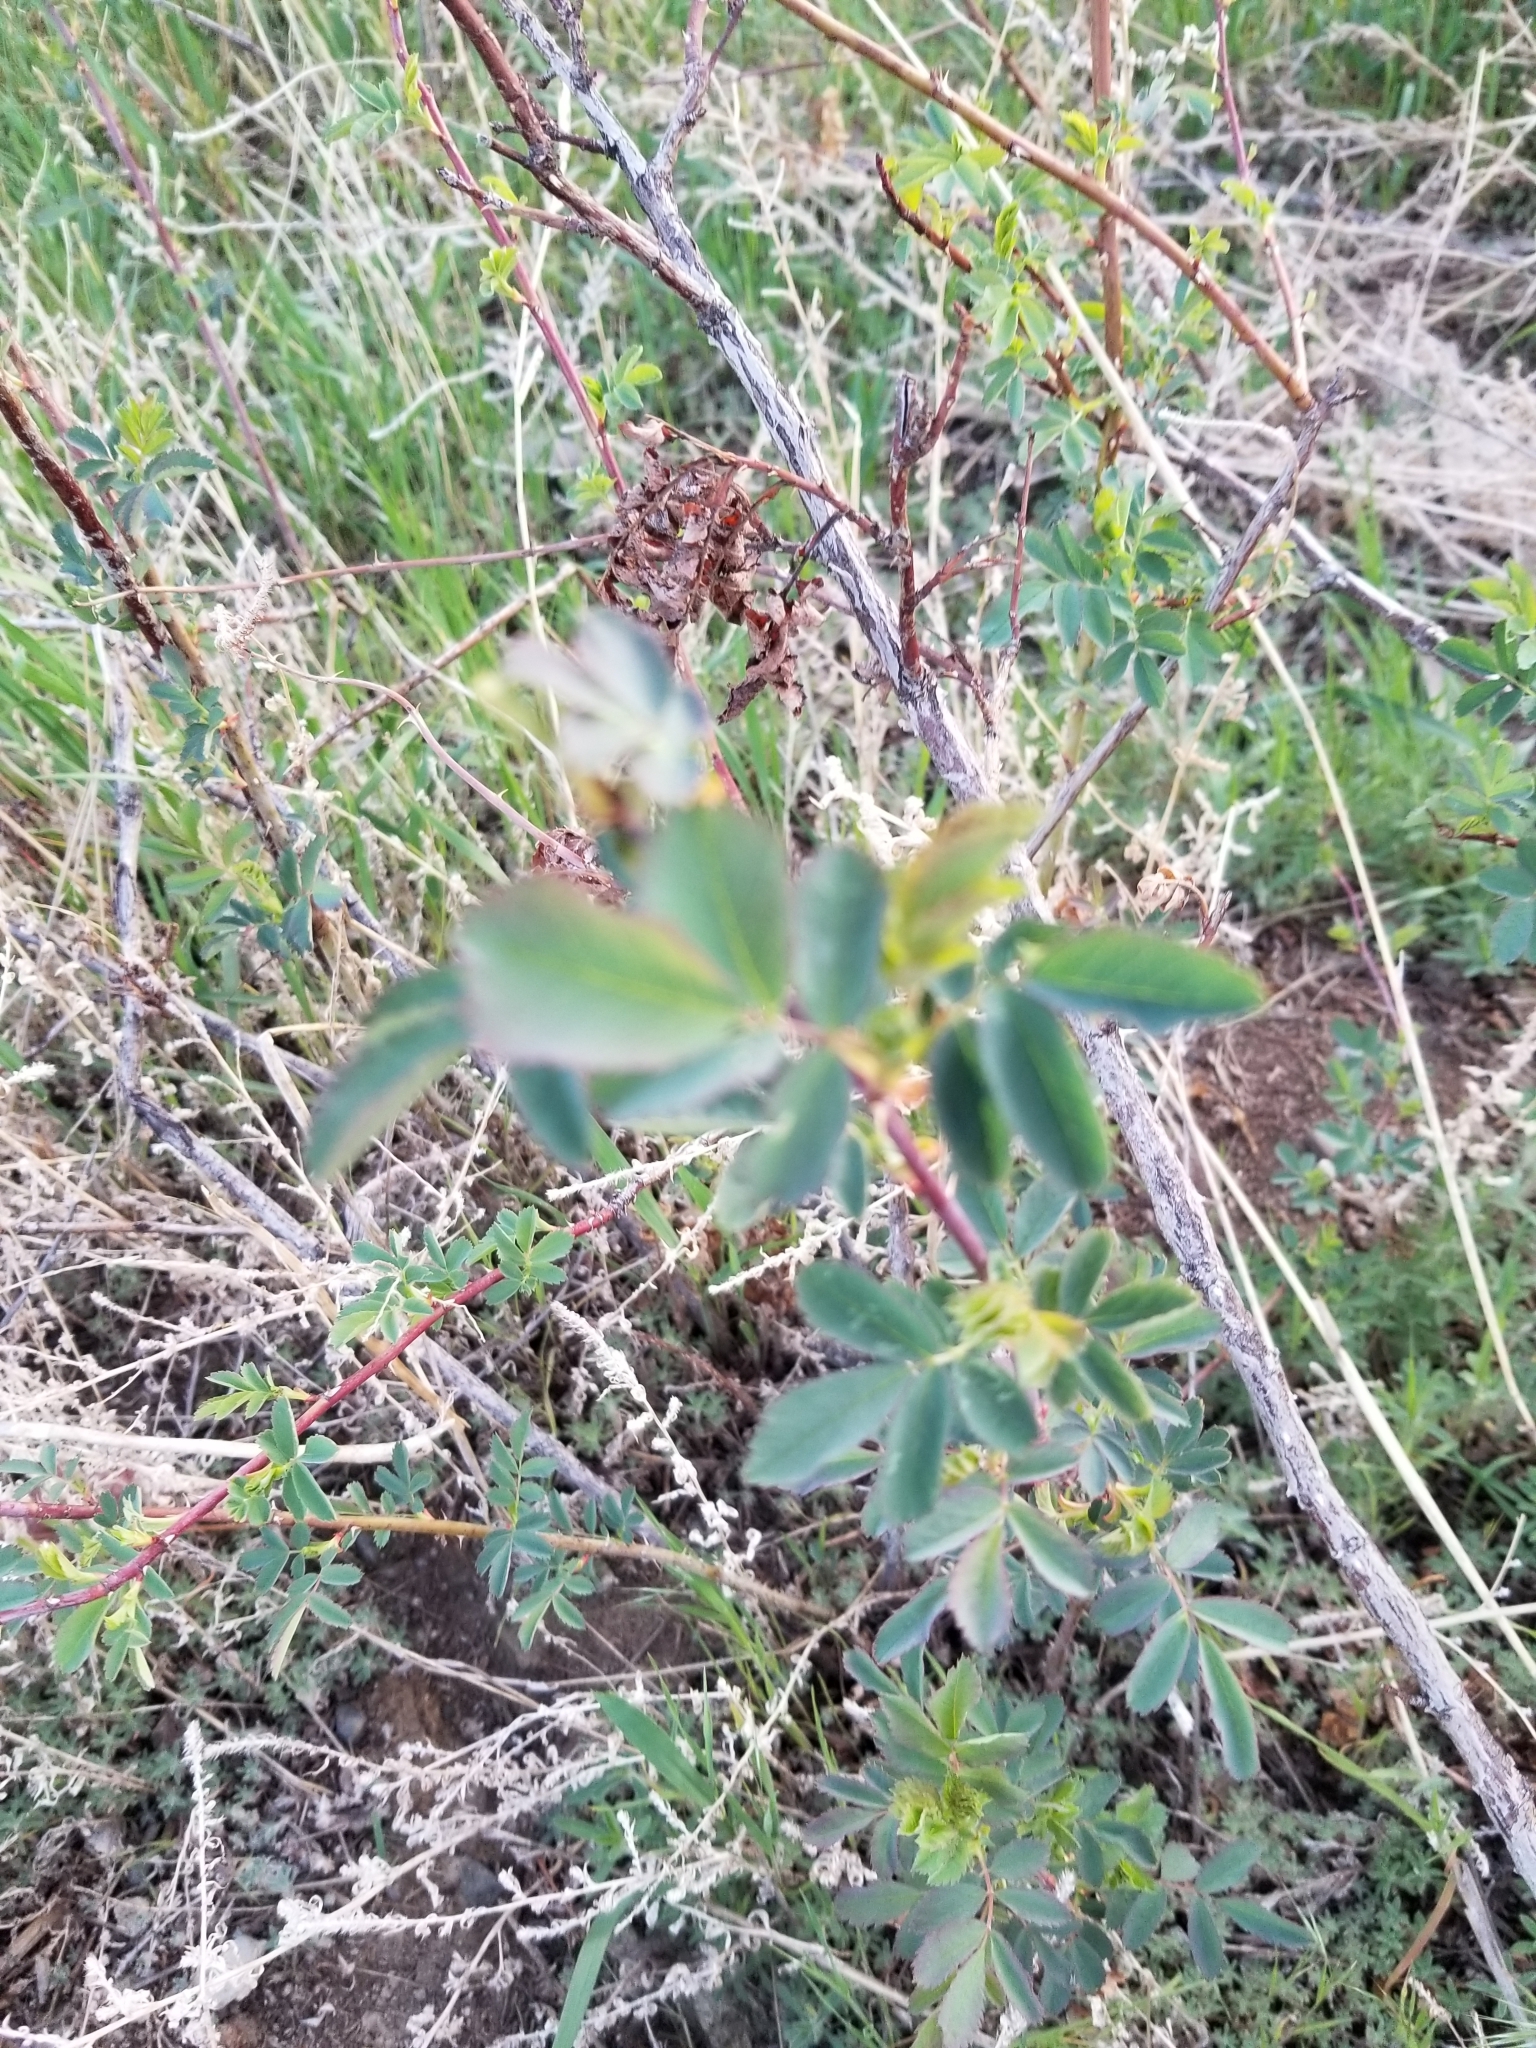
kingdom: Plantae
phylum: Tracheophyta
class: Magnoliopsida
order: Rosales
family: Rosaceae
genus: Rosa
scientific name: Rosa woodsii
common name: Woods's rose
